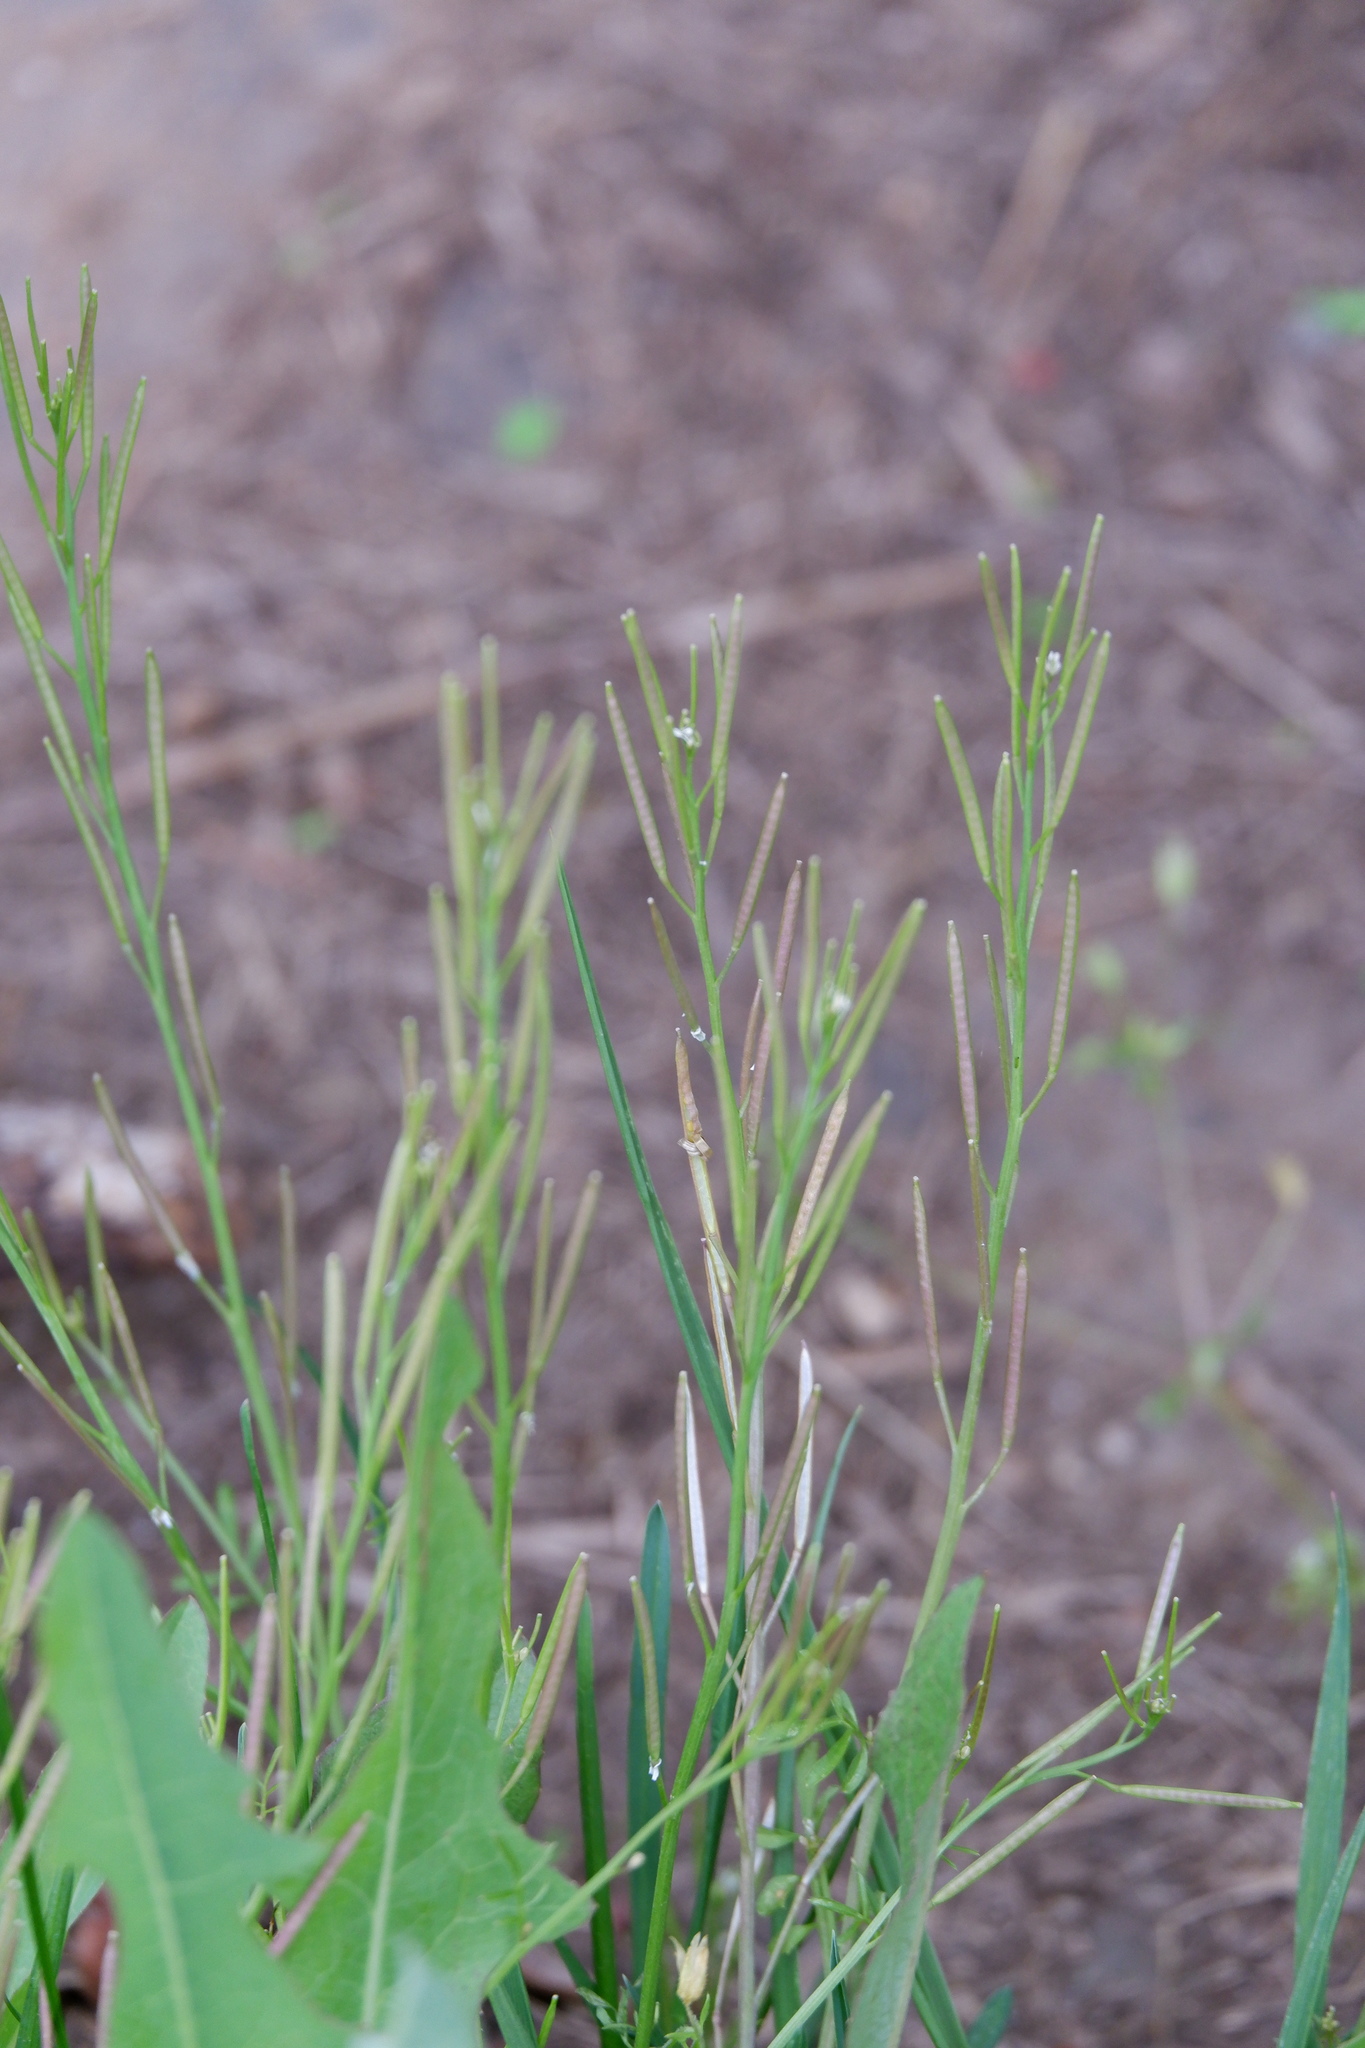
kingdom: Plantae
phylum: Tracheophyta
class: Magnoliopsida
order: Brassicales
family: Brassicaceae
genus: Cardamine
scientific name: Cardamine hirsuta
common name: Hairy bittercress
